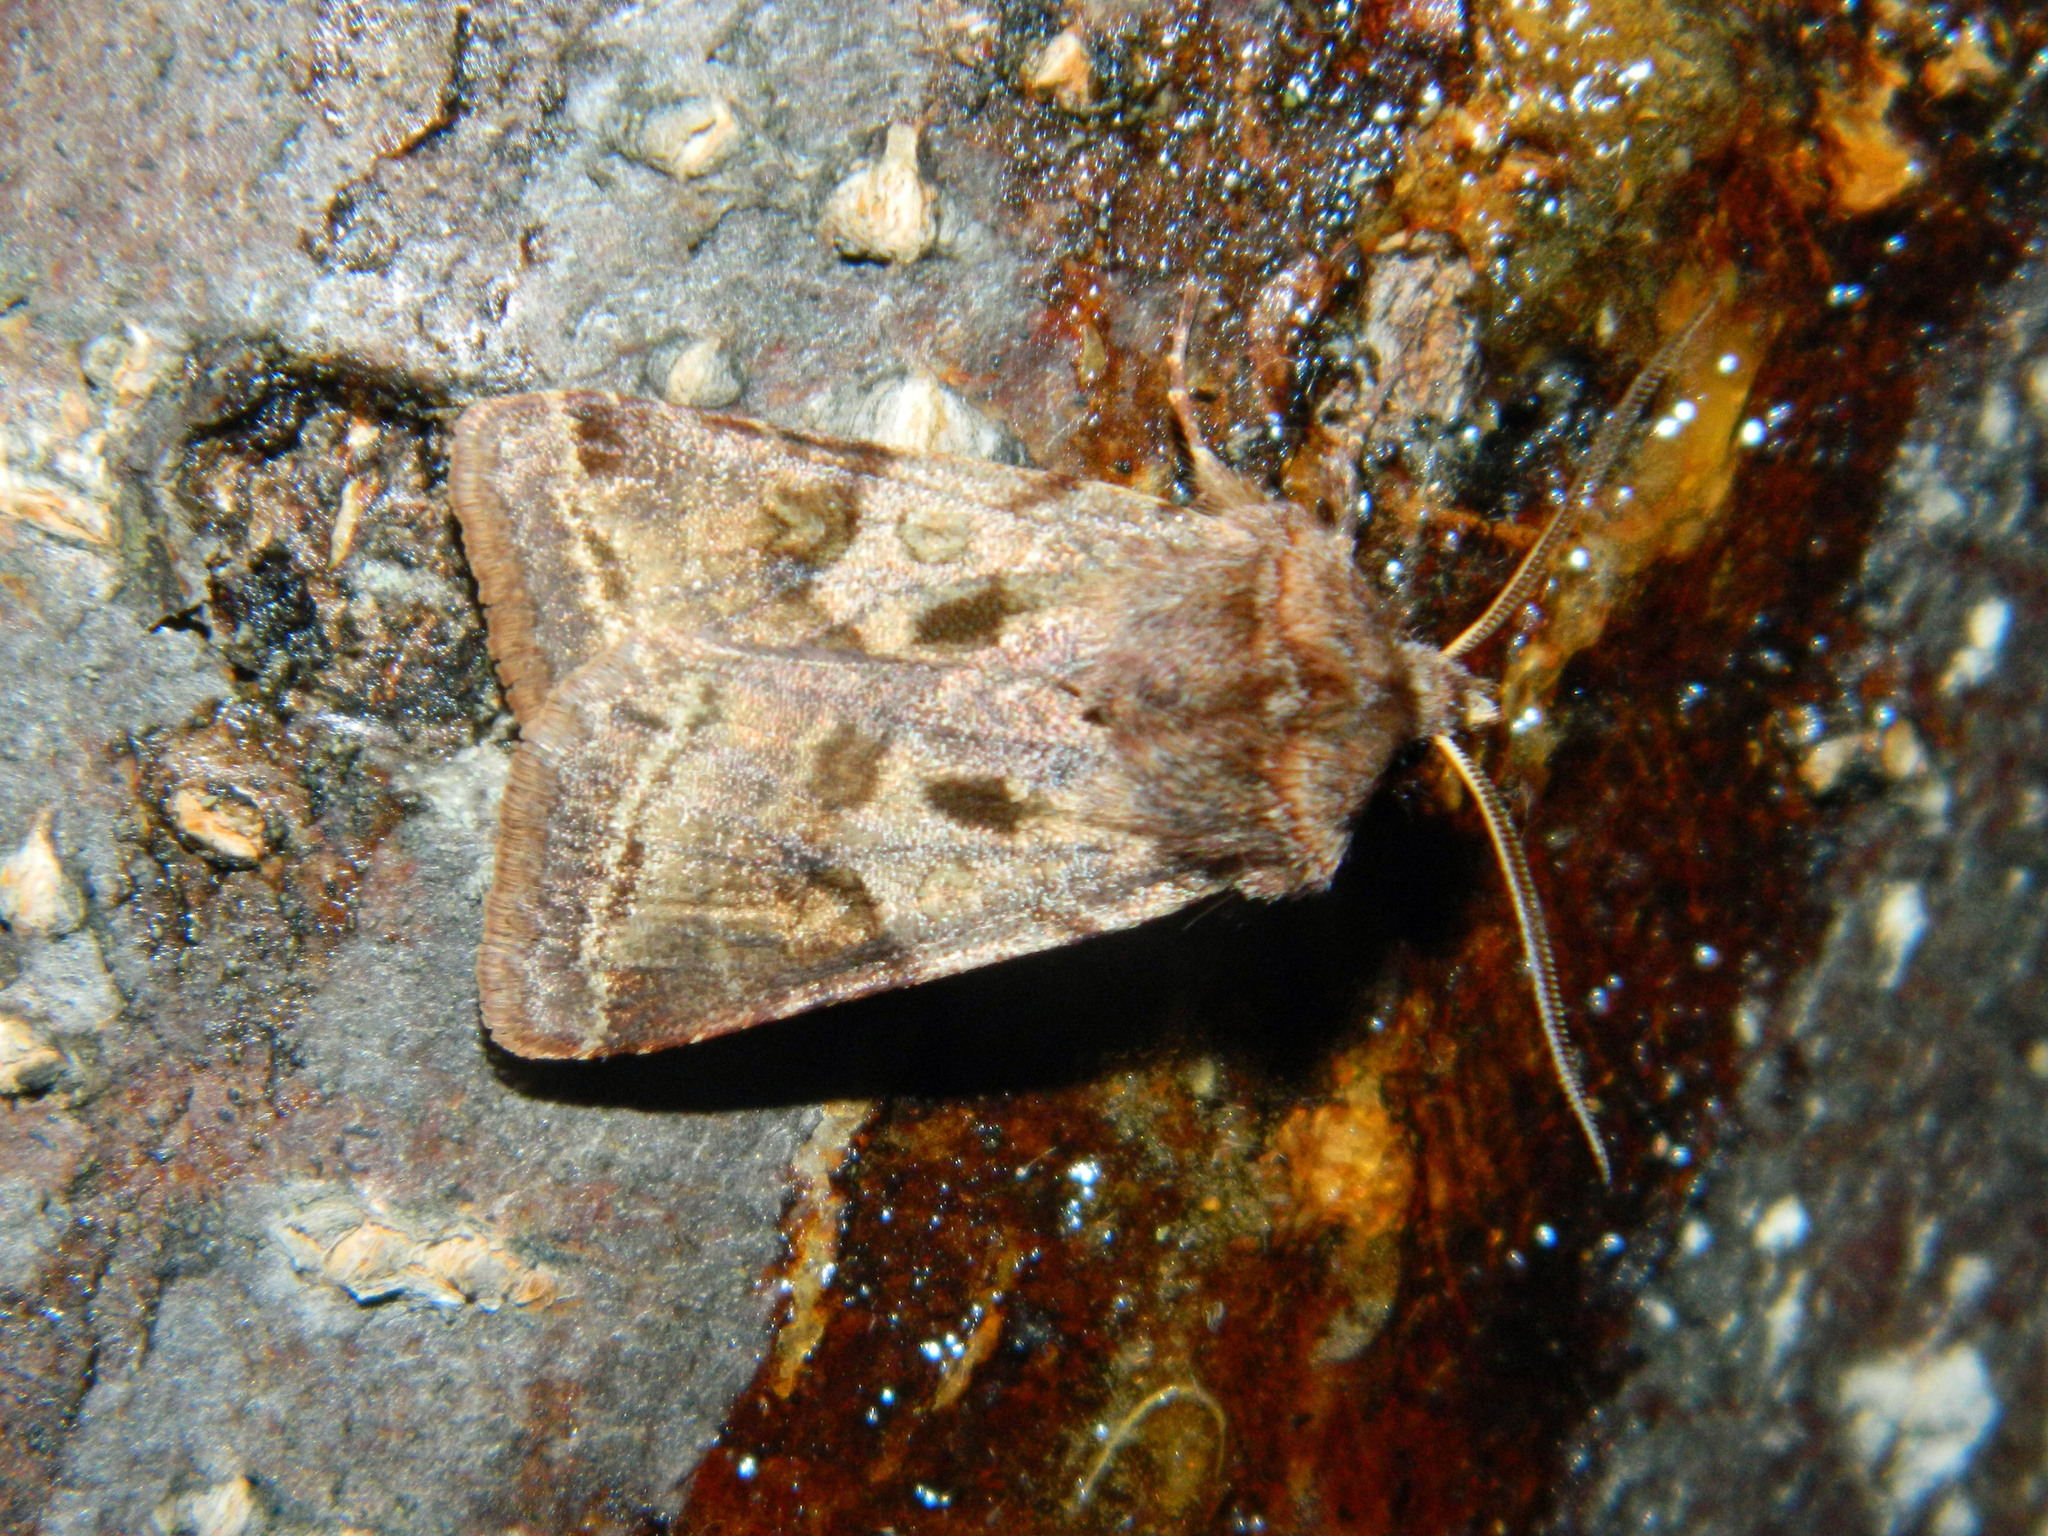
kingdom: Animalia
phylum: Arthropoda
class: Insecta
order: Lepidoptera
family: Noctuidae
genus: Cerastis
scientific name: Cerastis salicarum
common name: Willow dart
